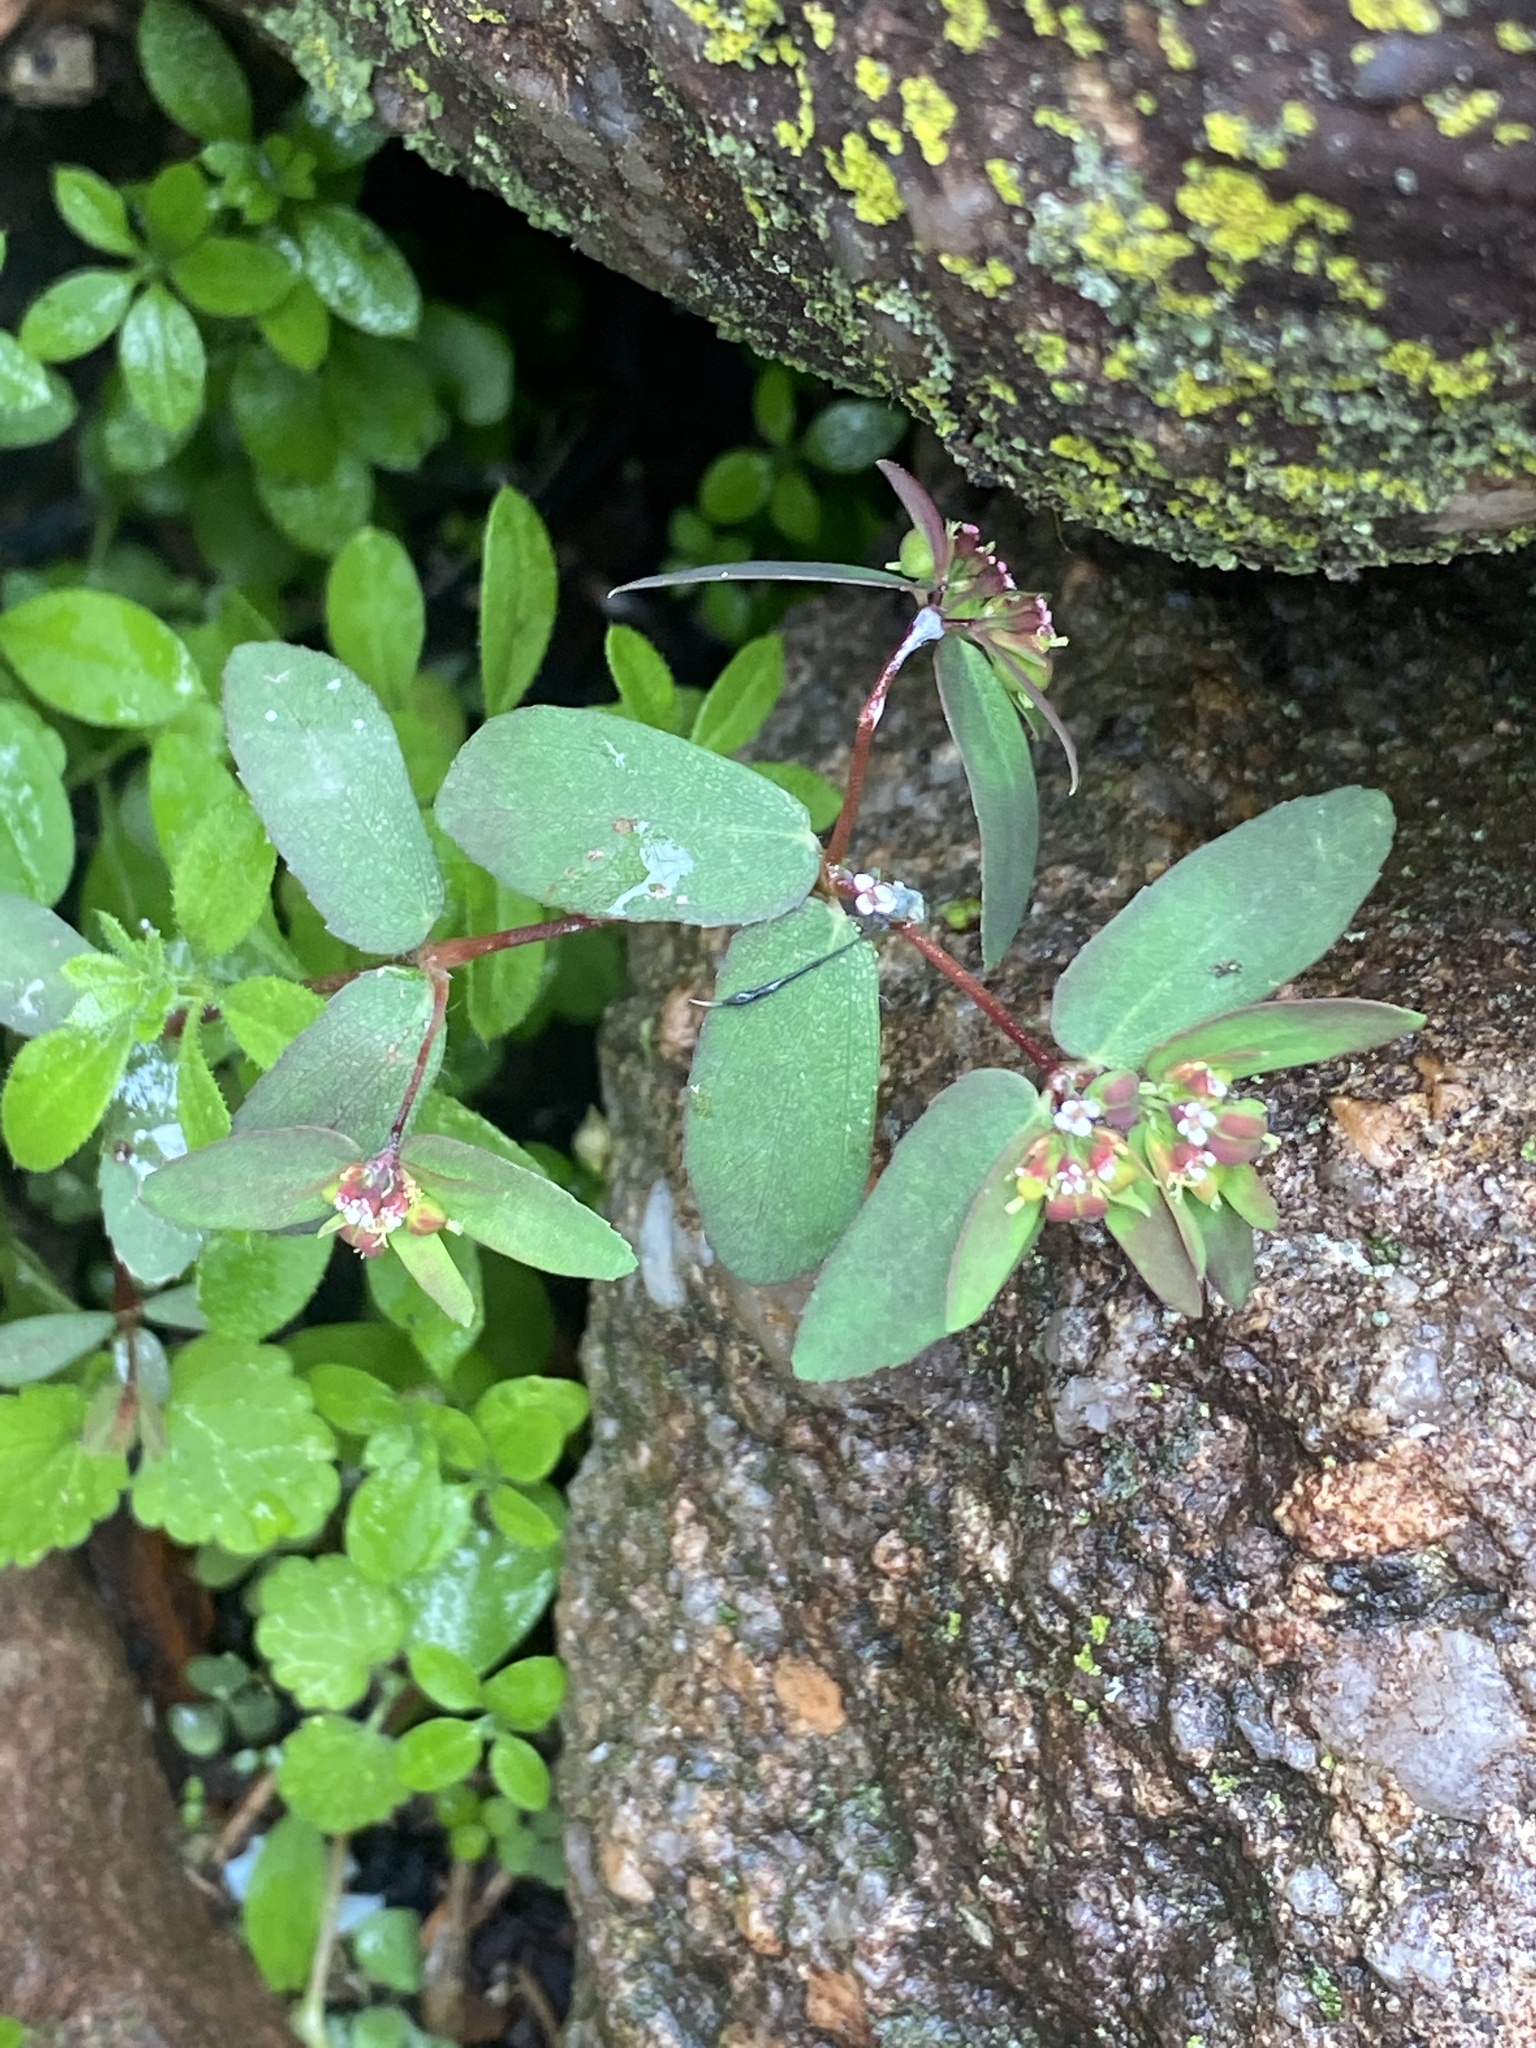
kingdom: Plantae
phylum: Tracheophyta
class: Magnoliopsida
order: Malpighiales
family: Euphorbiaceae
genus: Euphorbia
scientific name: Euphorbia nutans
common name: Eyebane
